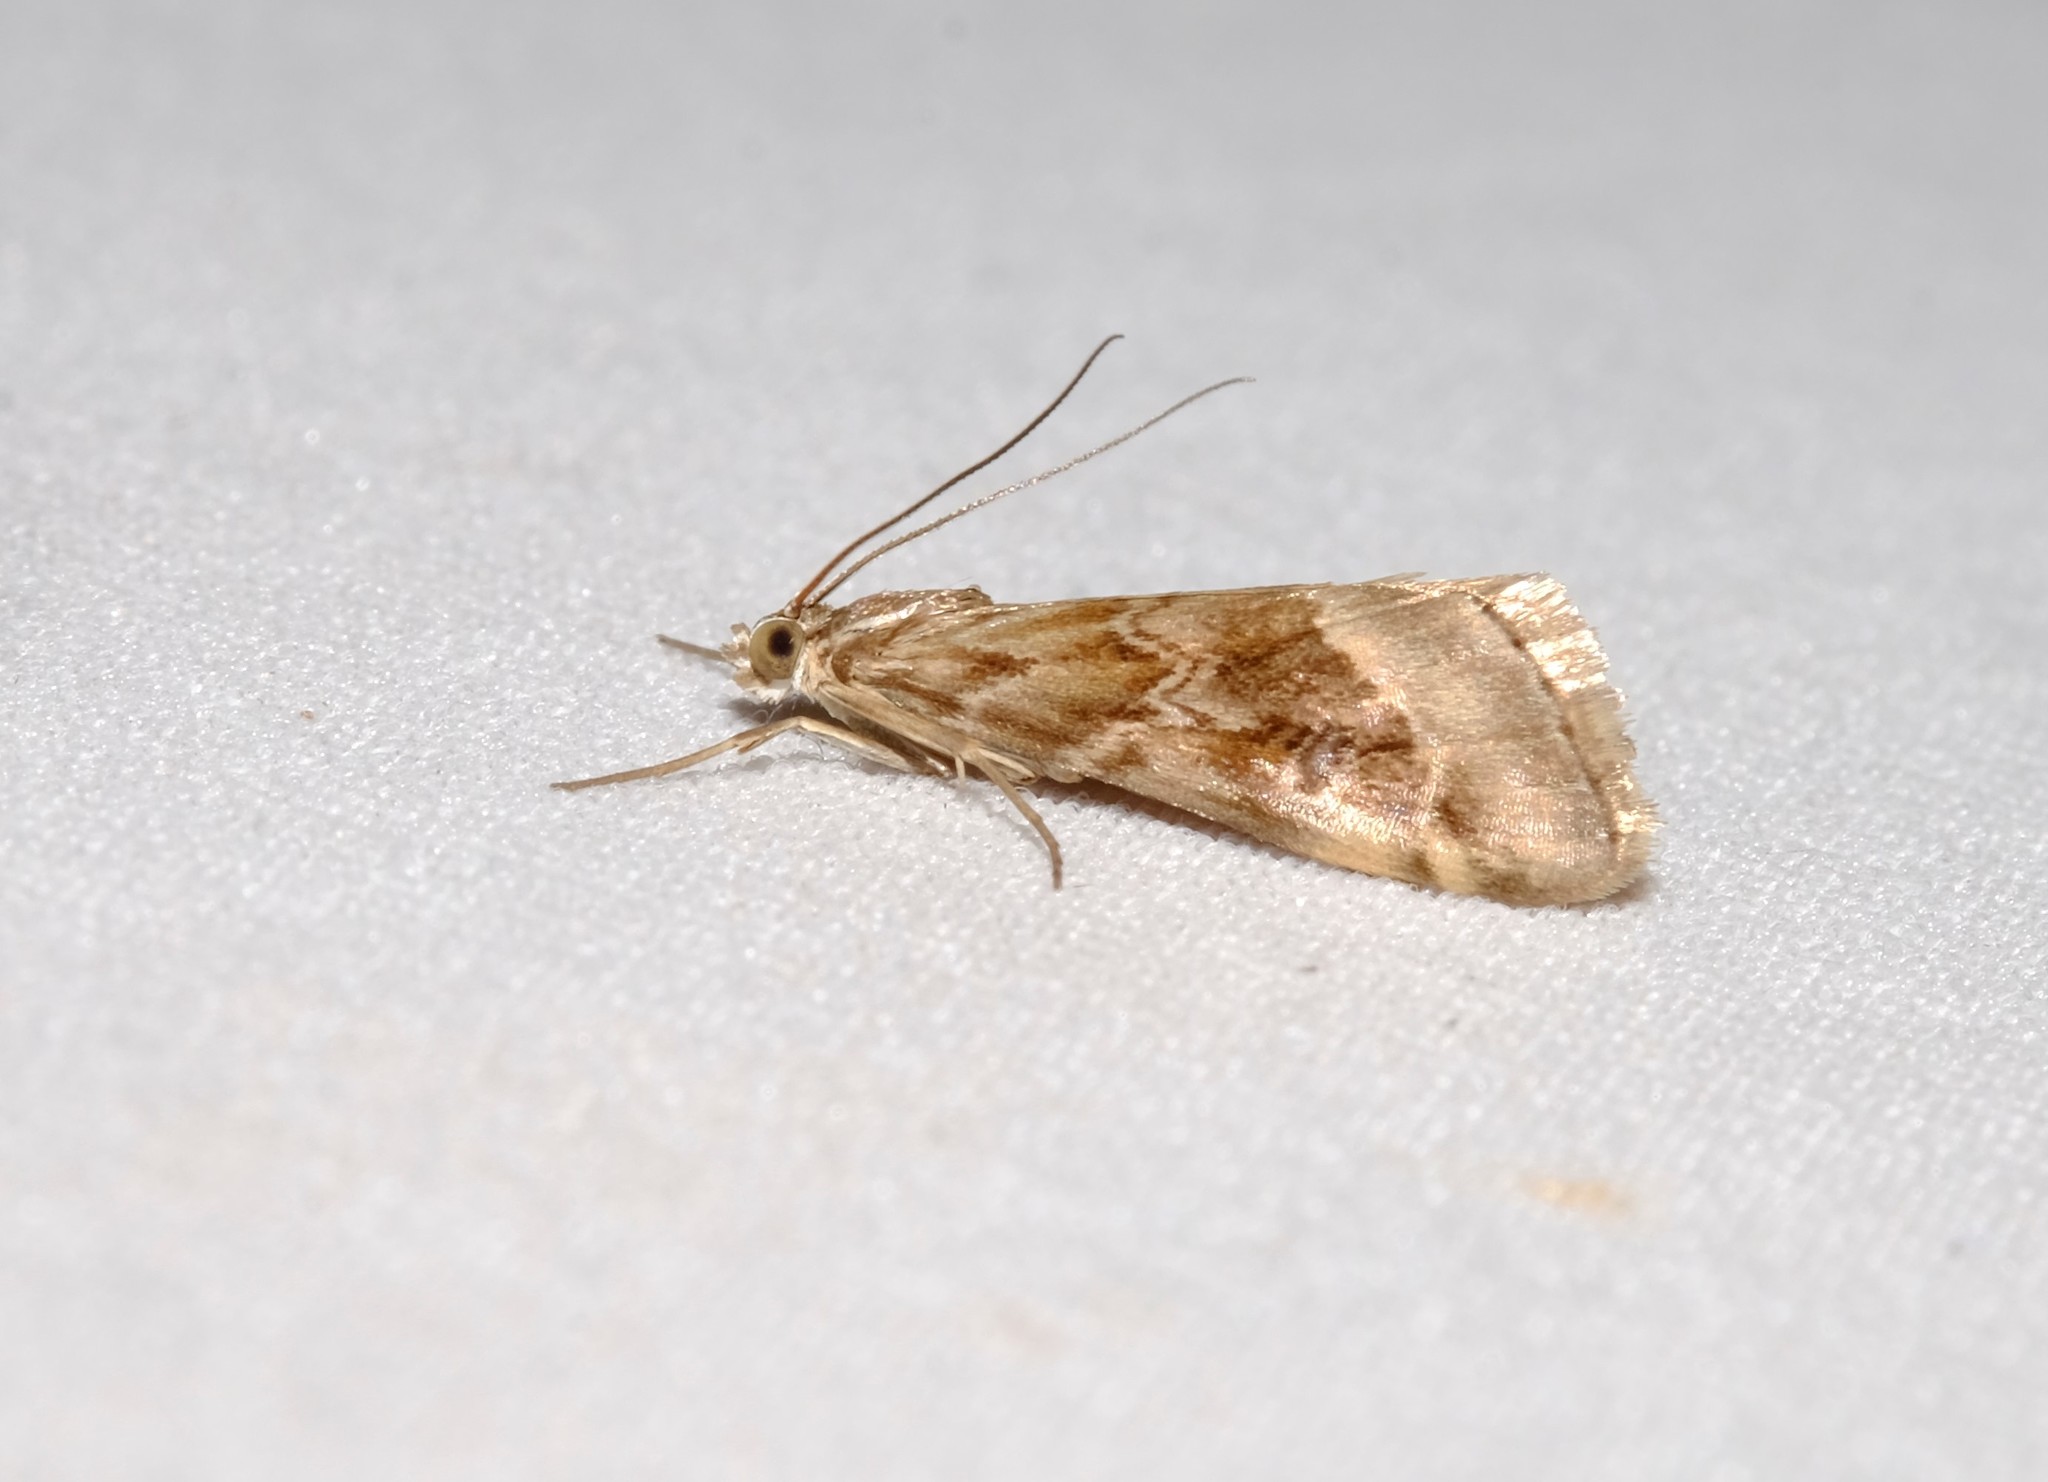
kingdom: Animalia
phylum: Arthropoda
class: Insecta
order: Lepidoptera
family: Crambidae
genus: Hellula
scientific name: Hellula hydralis
